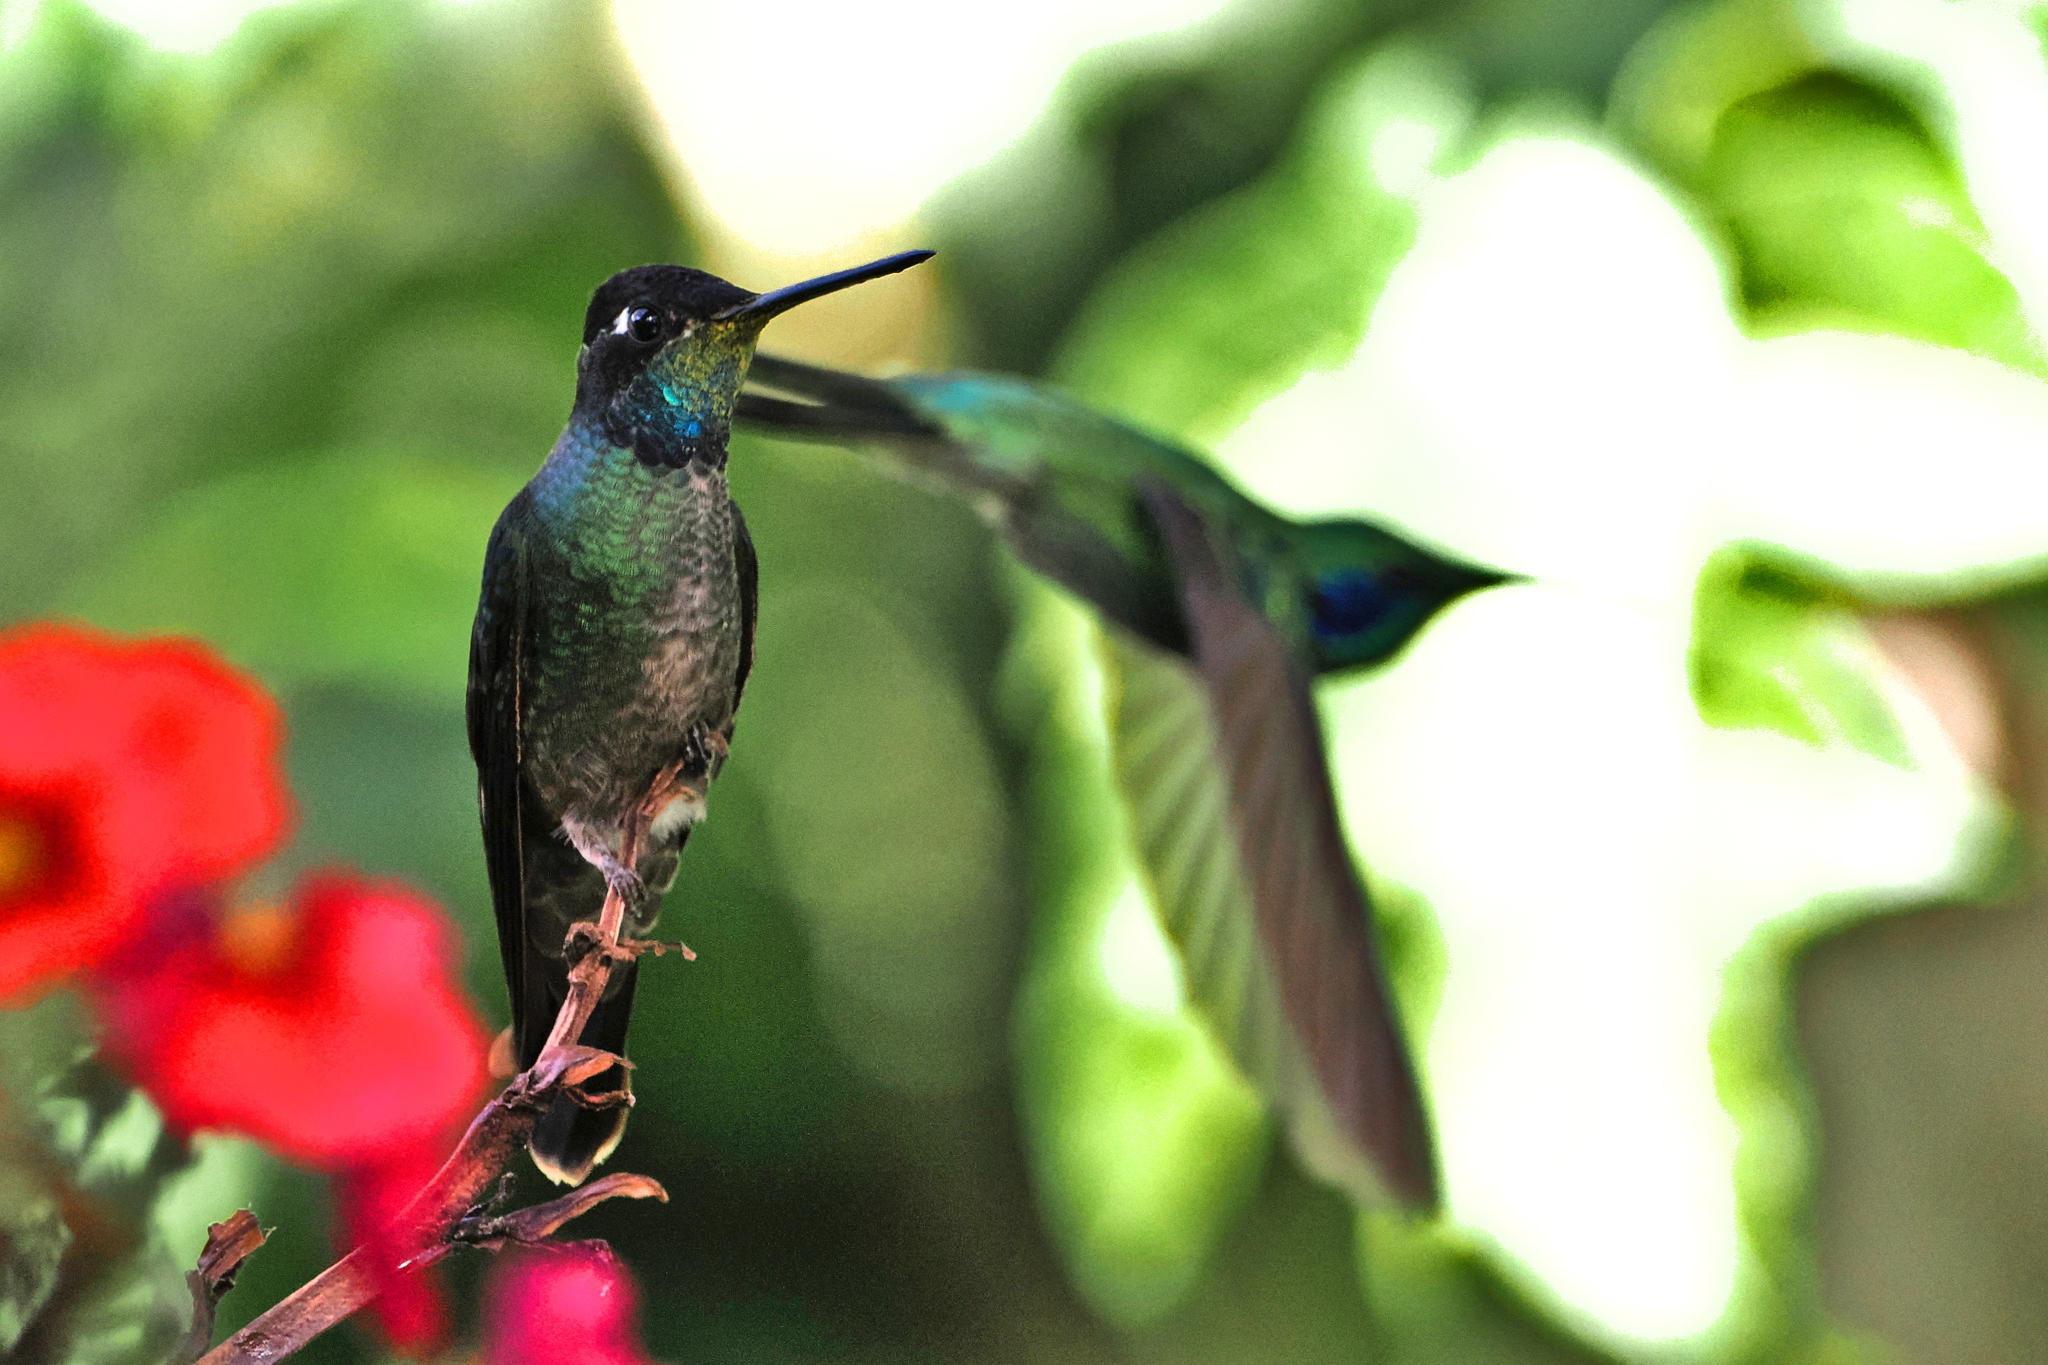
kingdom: Animalia
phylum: Chordata
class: Aves
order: Apodiformes
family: Trochilidae
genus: Eugenes
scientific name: Eugenes spectabilis
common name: Talamanca hummingbird
